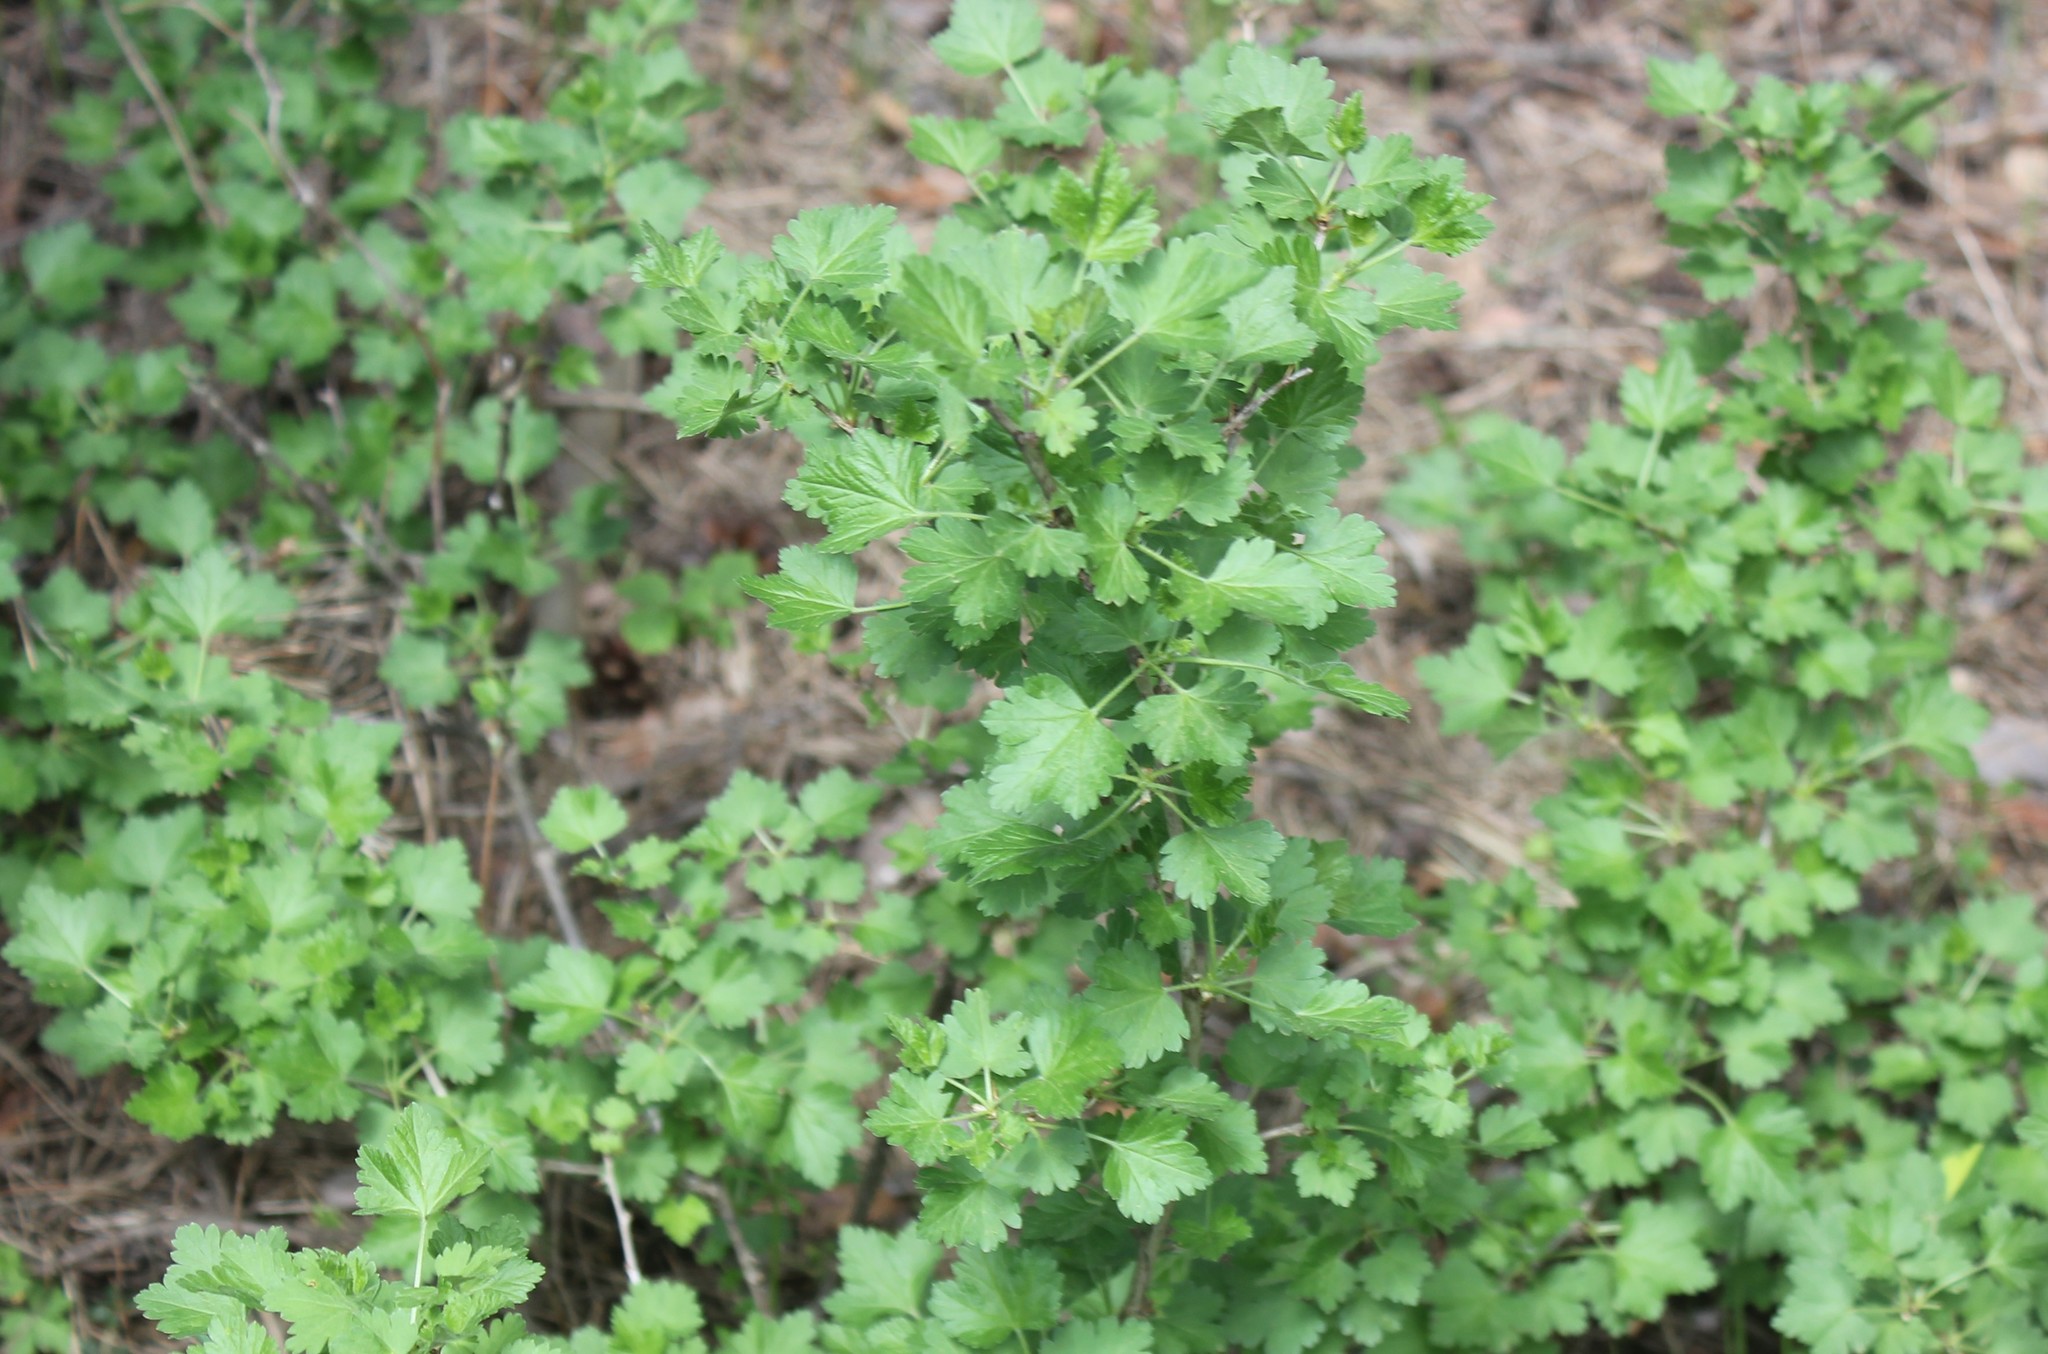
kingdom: Plantae
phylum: Tracheophyta
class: Magnoliopsida
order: Saxifragales
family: Grossulariaceae
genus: Ribes
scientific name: Ribes uva-crispa
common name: Gooseberry
